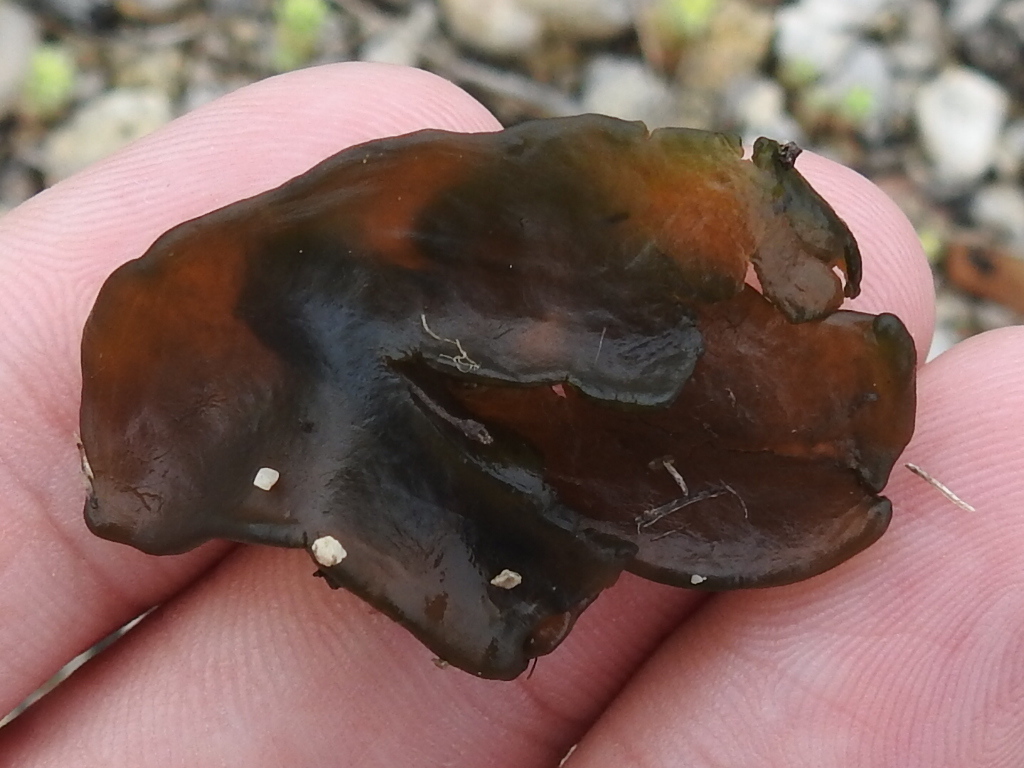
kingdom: Bacteria
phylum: Cyanobacteria
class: Cyanobacteriia
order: Cyanobacteriales
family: Nostocaceae
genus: Nostoc
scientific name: Nostoc commune
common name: Star jelly
